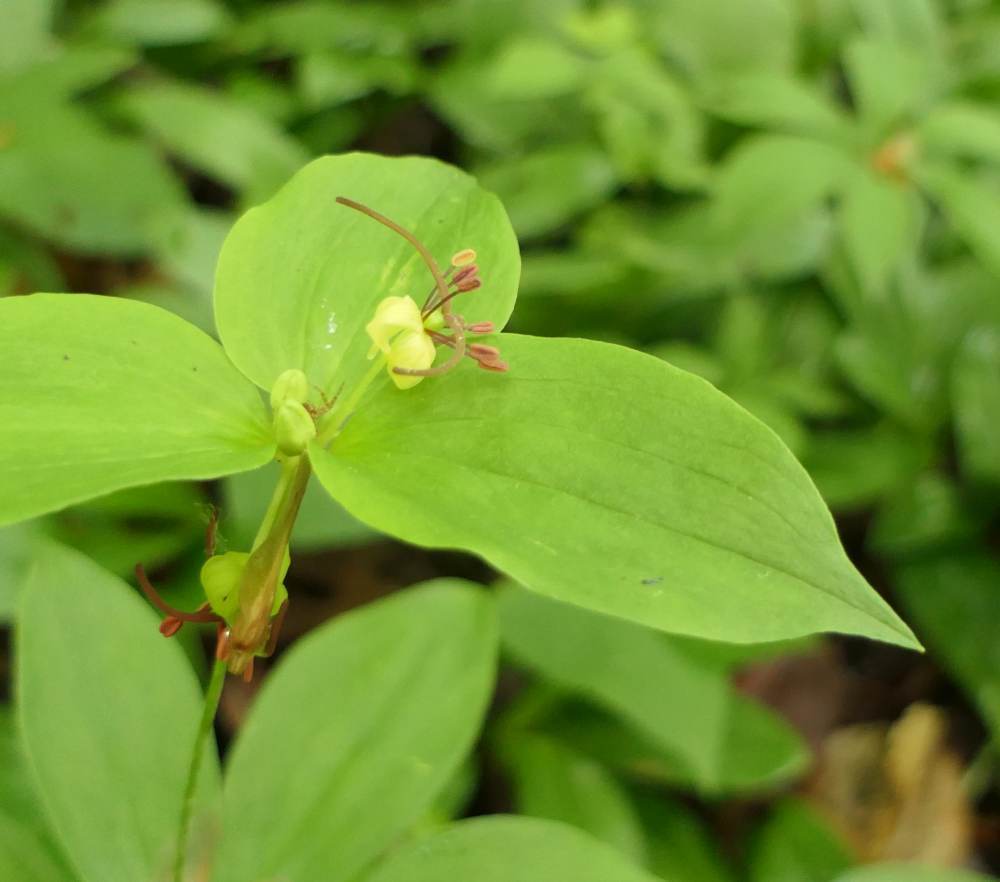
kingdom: Plantae
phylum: Tracheophyta
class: Liliopsida
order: Liliales
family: Liliaceae
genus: Medeola
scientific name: Medeola virginiana
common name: Indian cucumber-root
